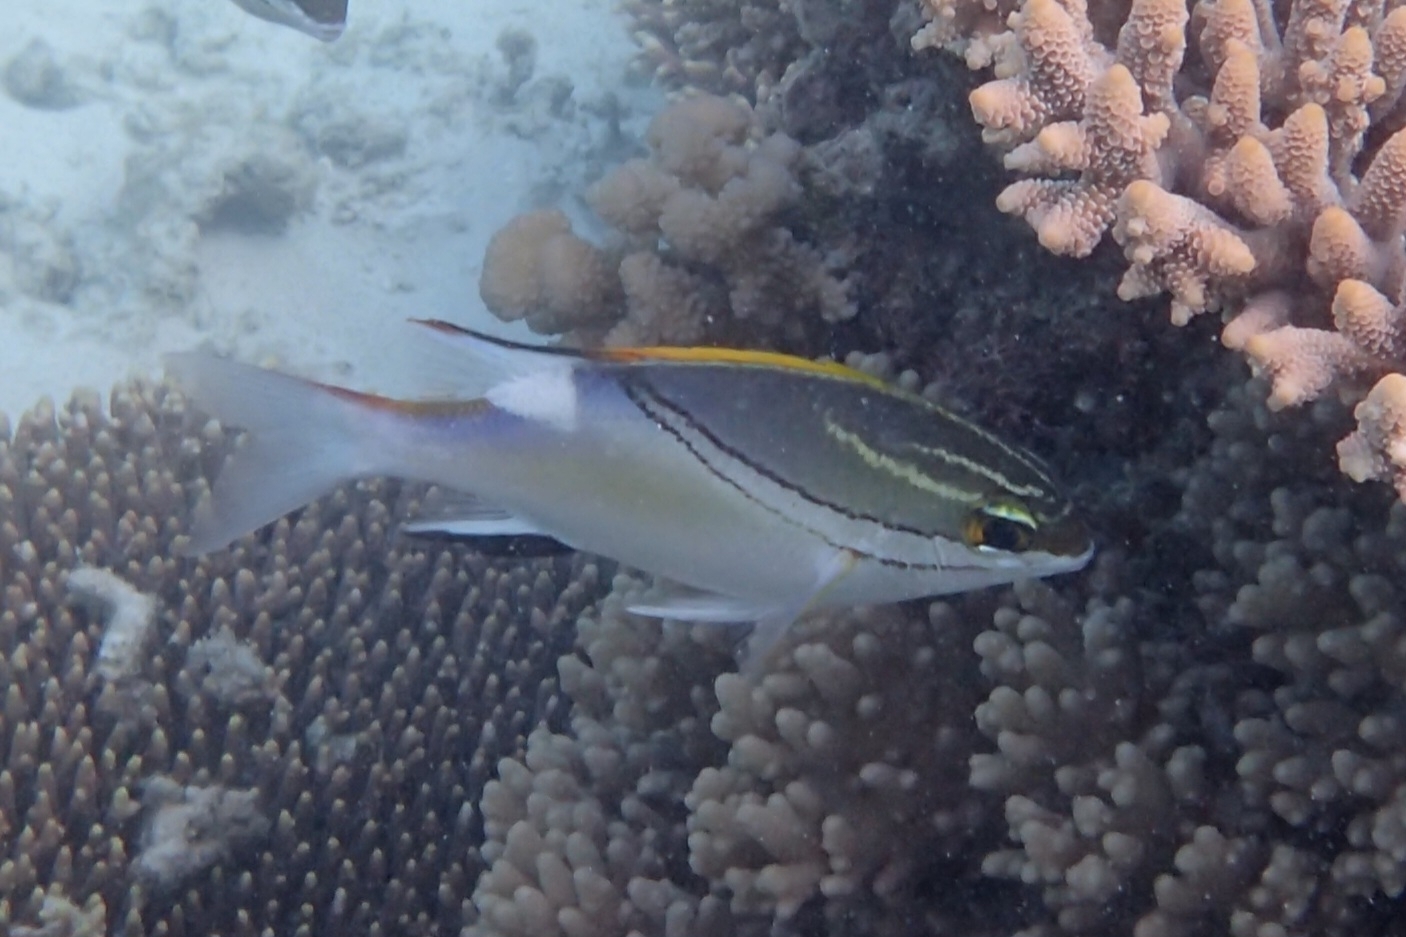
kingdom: Animalia
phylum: Chordata
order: Perciformes
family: Nemipteridae
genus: Scolopsis
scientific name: Scolopsis bilineata
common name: Two-lined monocle bream
